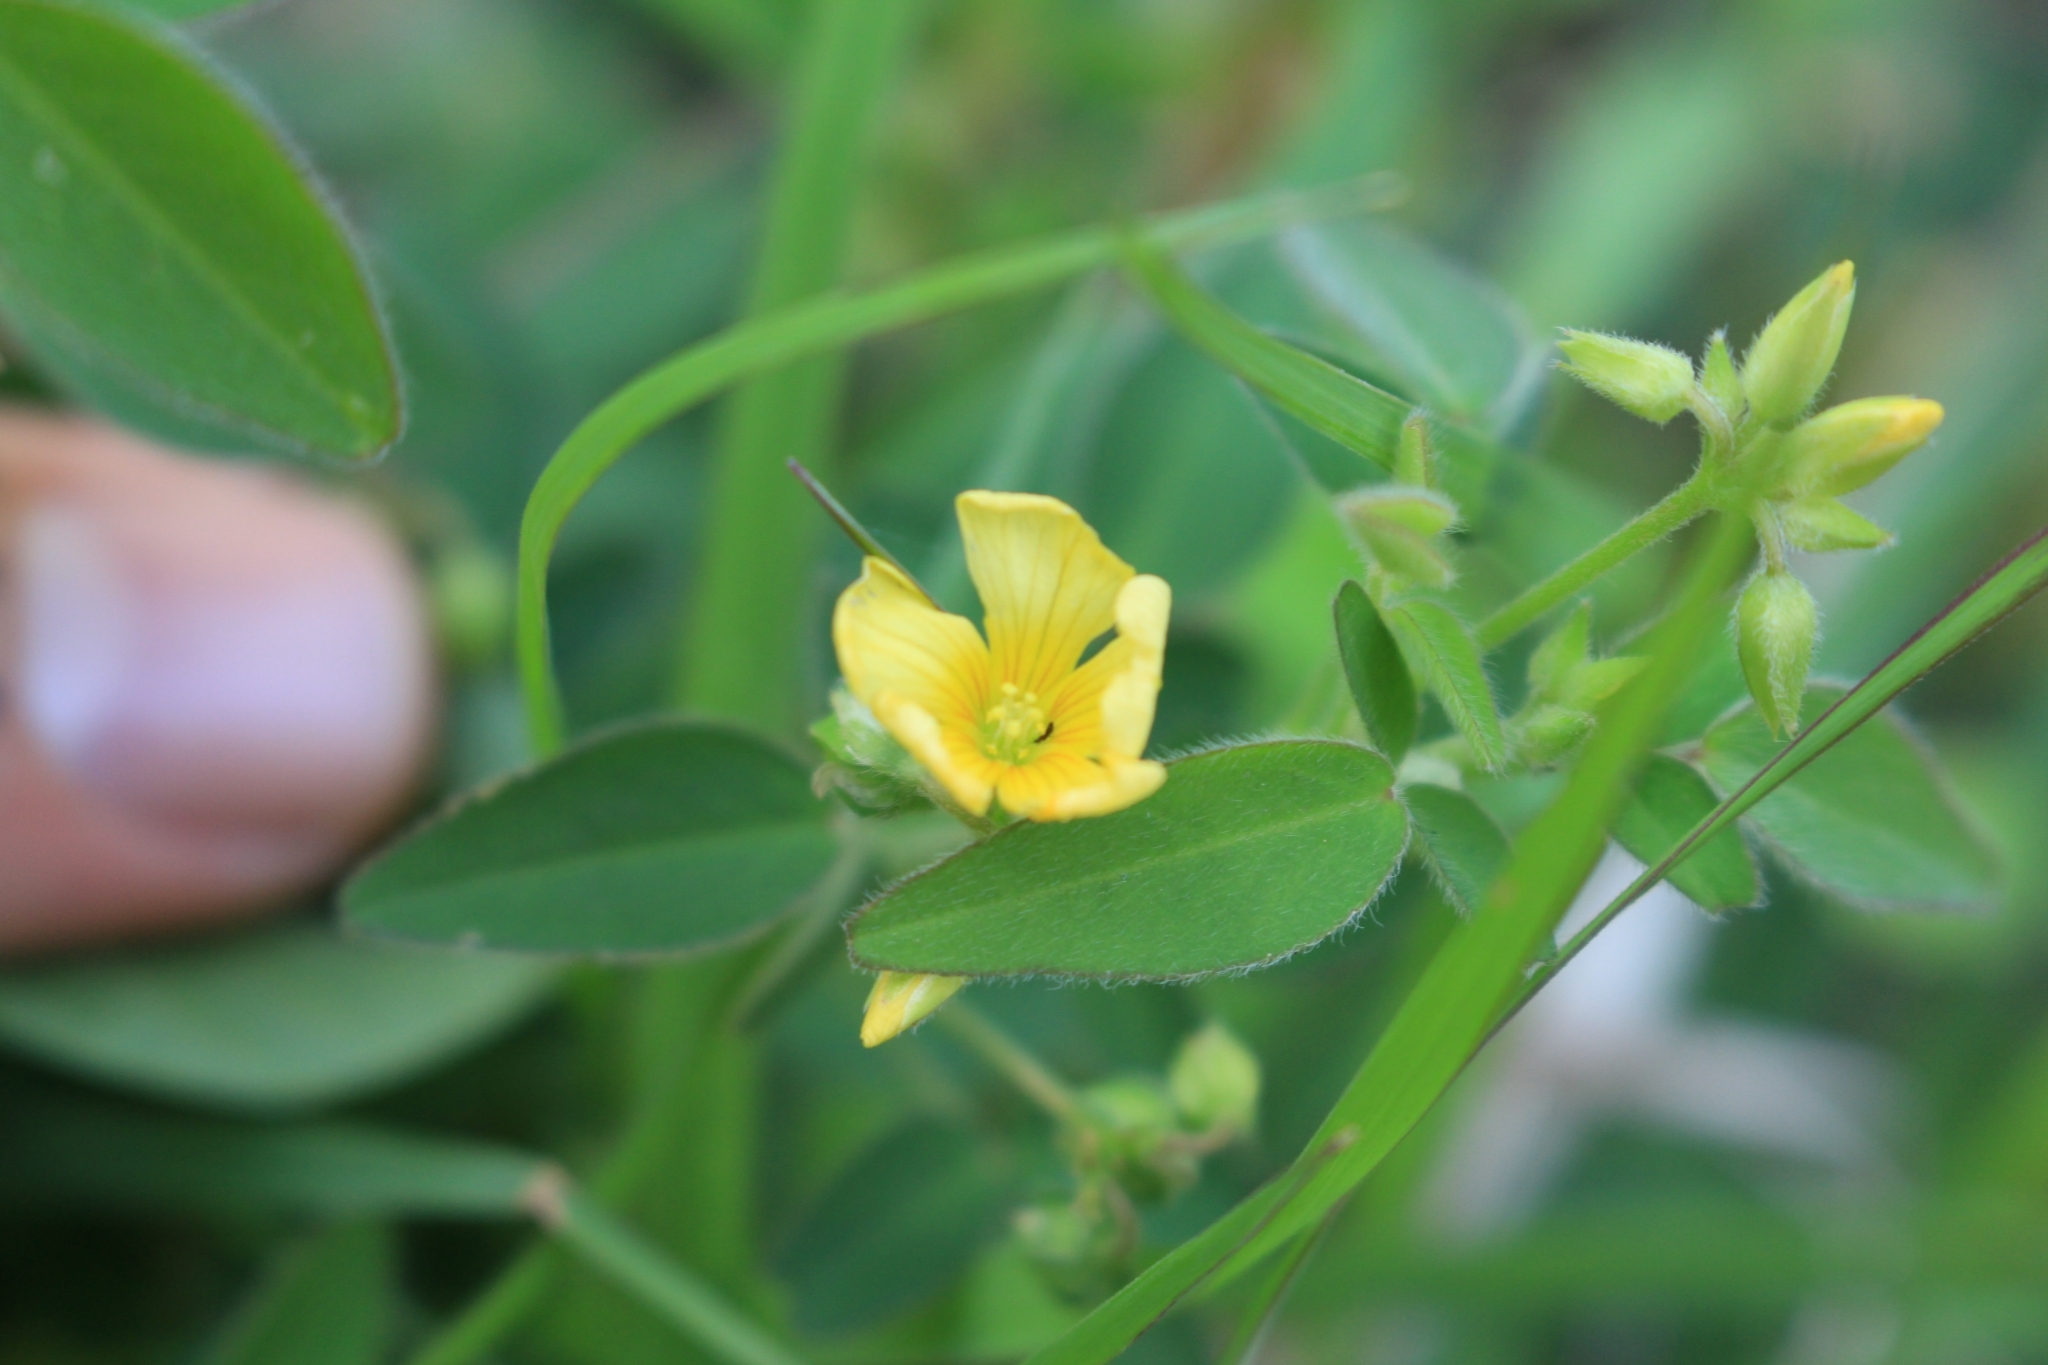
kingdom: Plantae
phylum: Tracheophyta
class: Magnoliopsida
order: Oxalidales
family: Oxalidaceae
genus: Oxalis
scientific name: Oxalis frutescens
